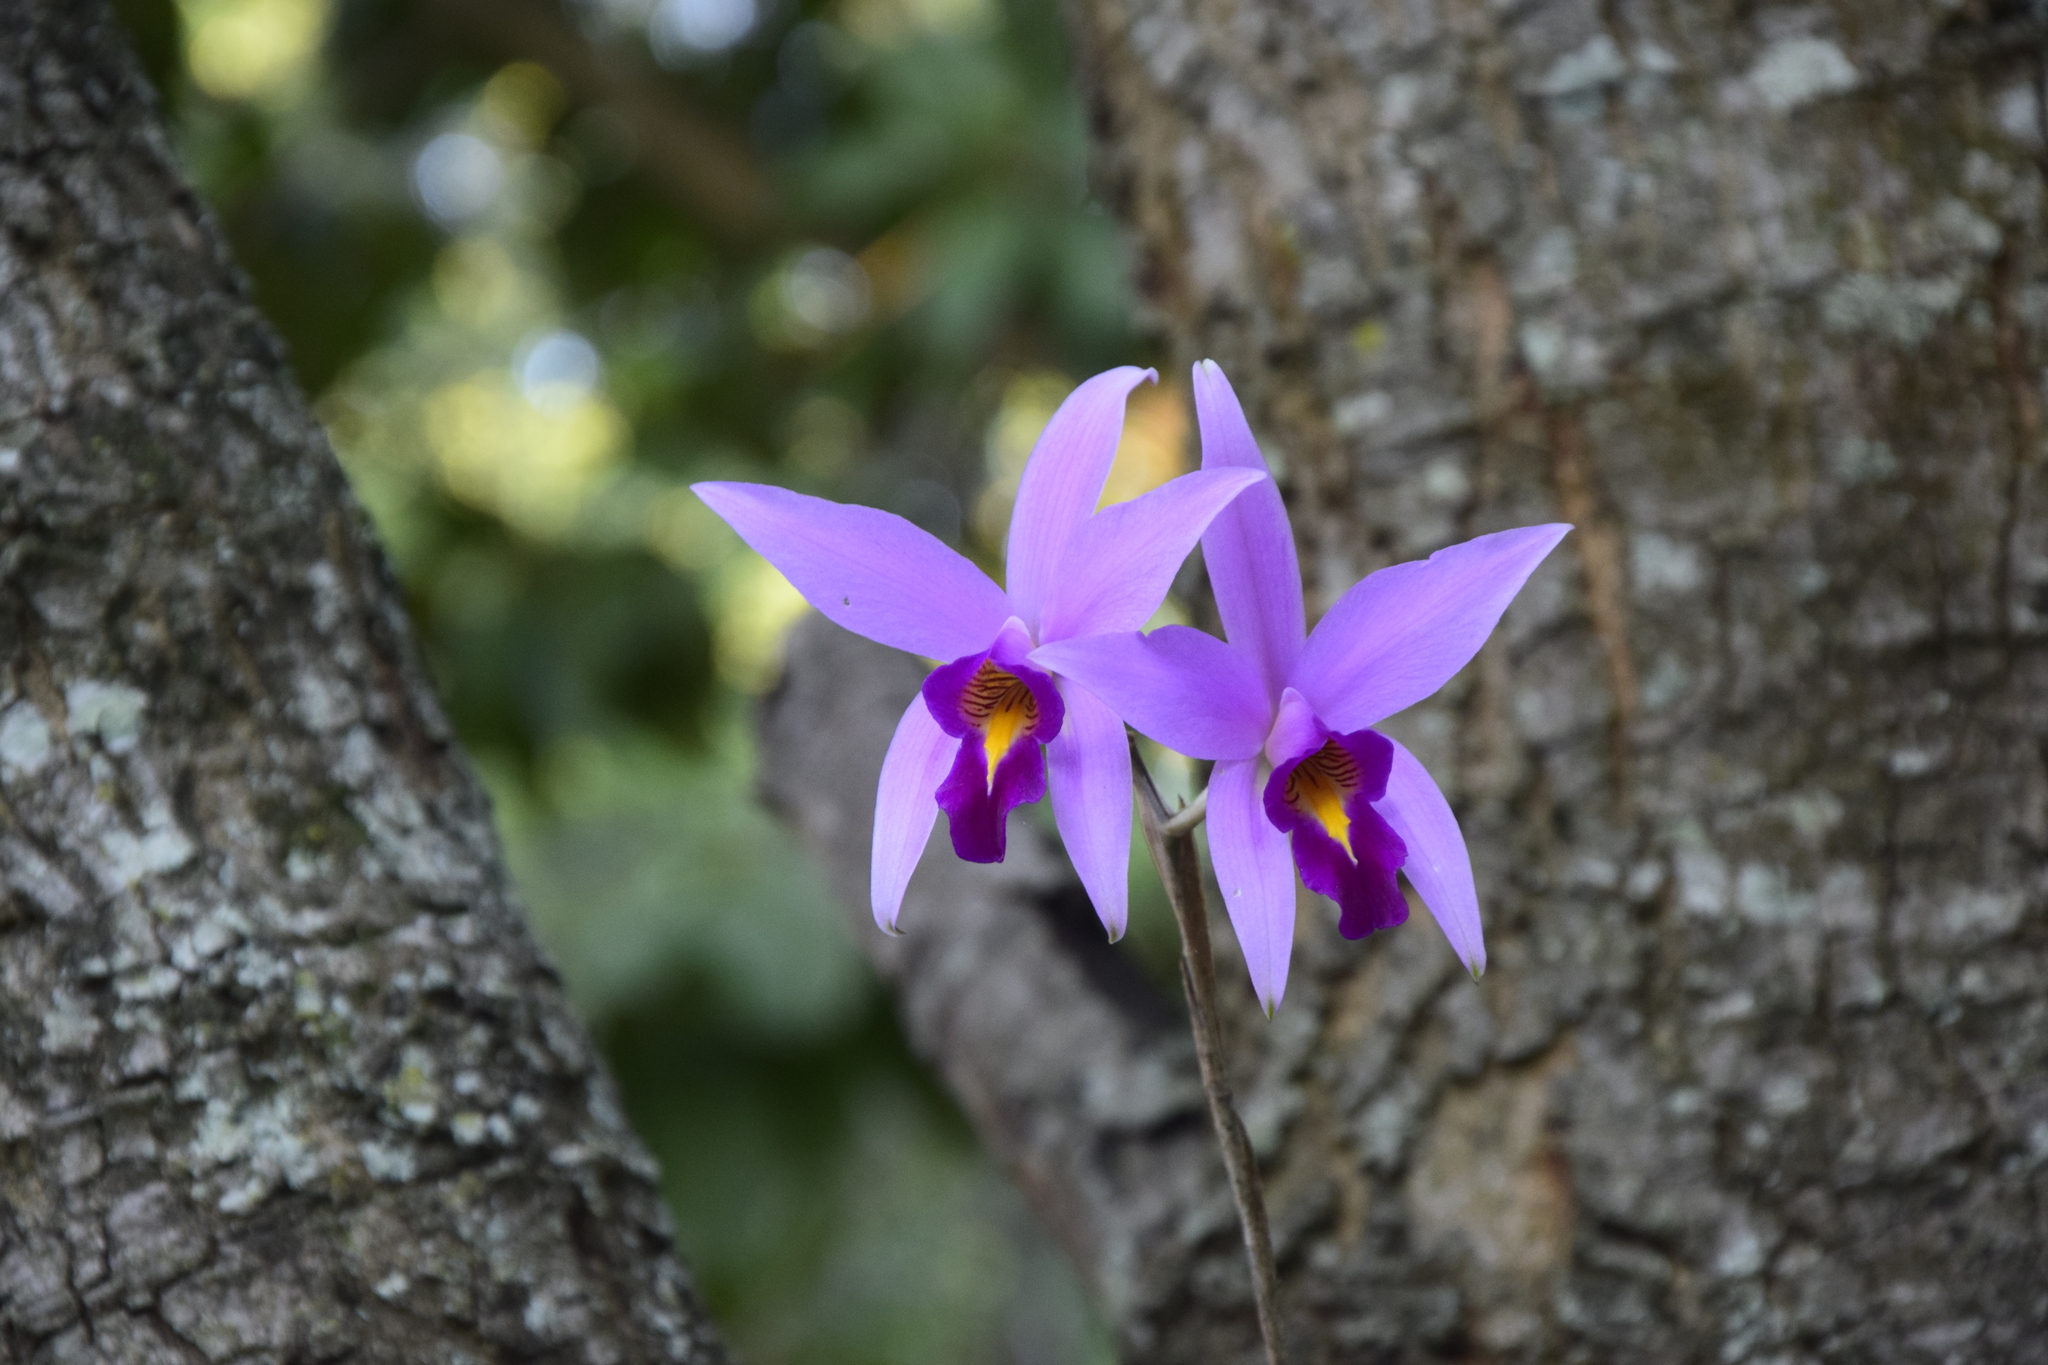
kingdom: Plantae
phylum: Tracheophyta
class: Liliopsida
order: Asparagales
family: Orchidaceae
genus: Laelia
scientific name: Laelia anceps
